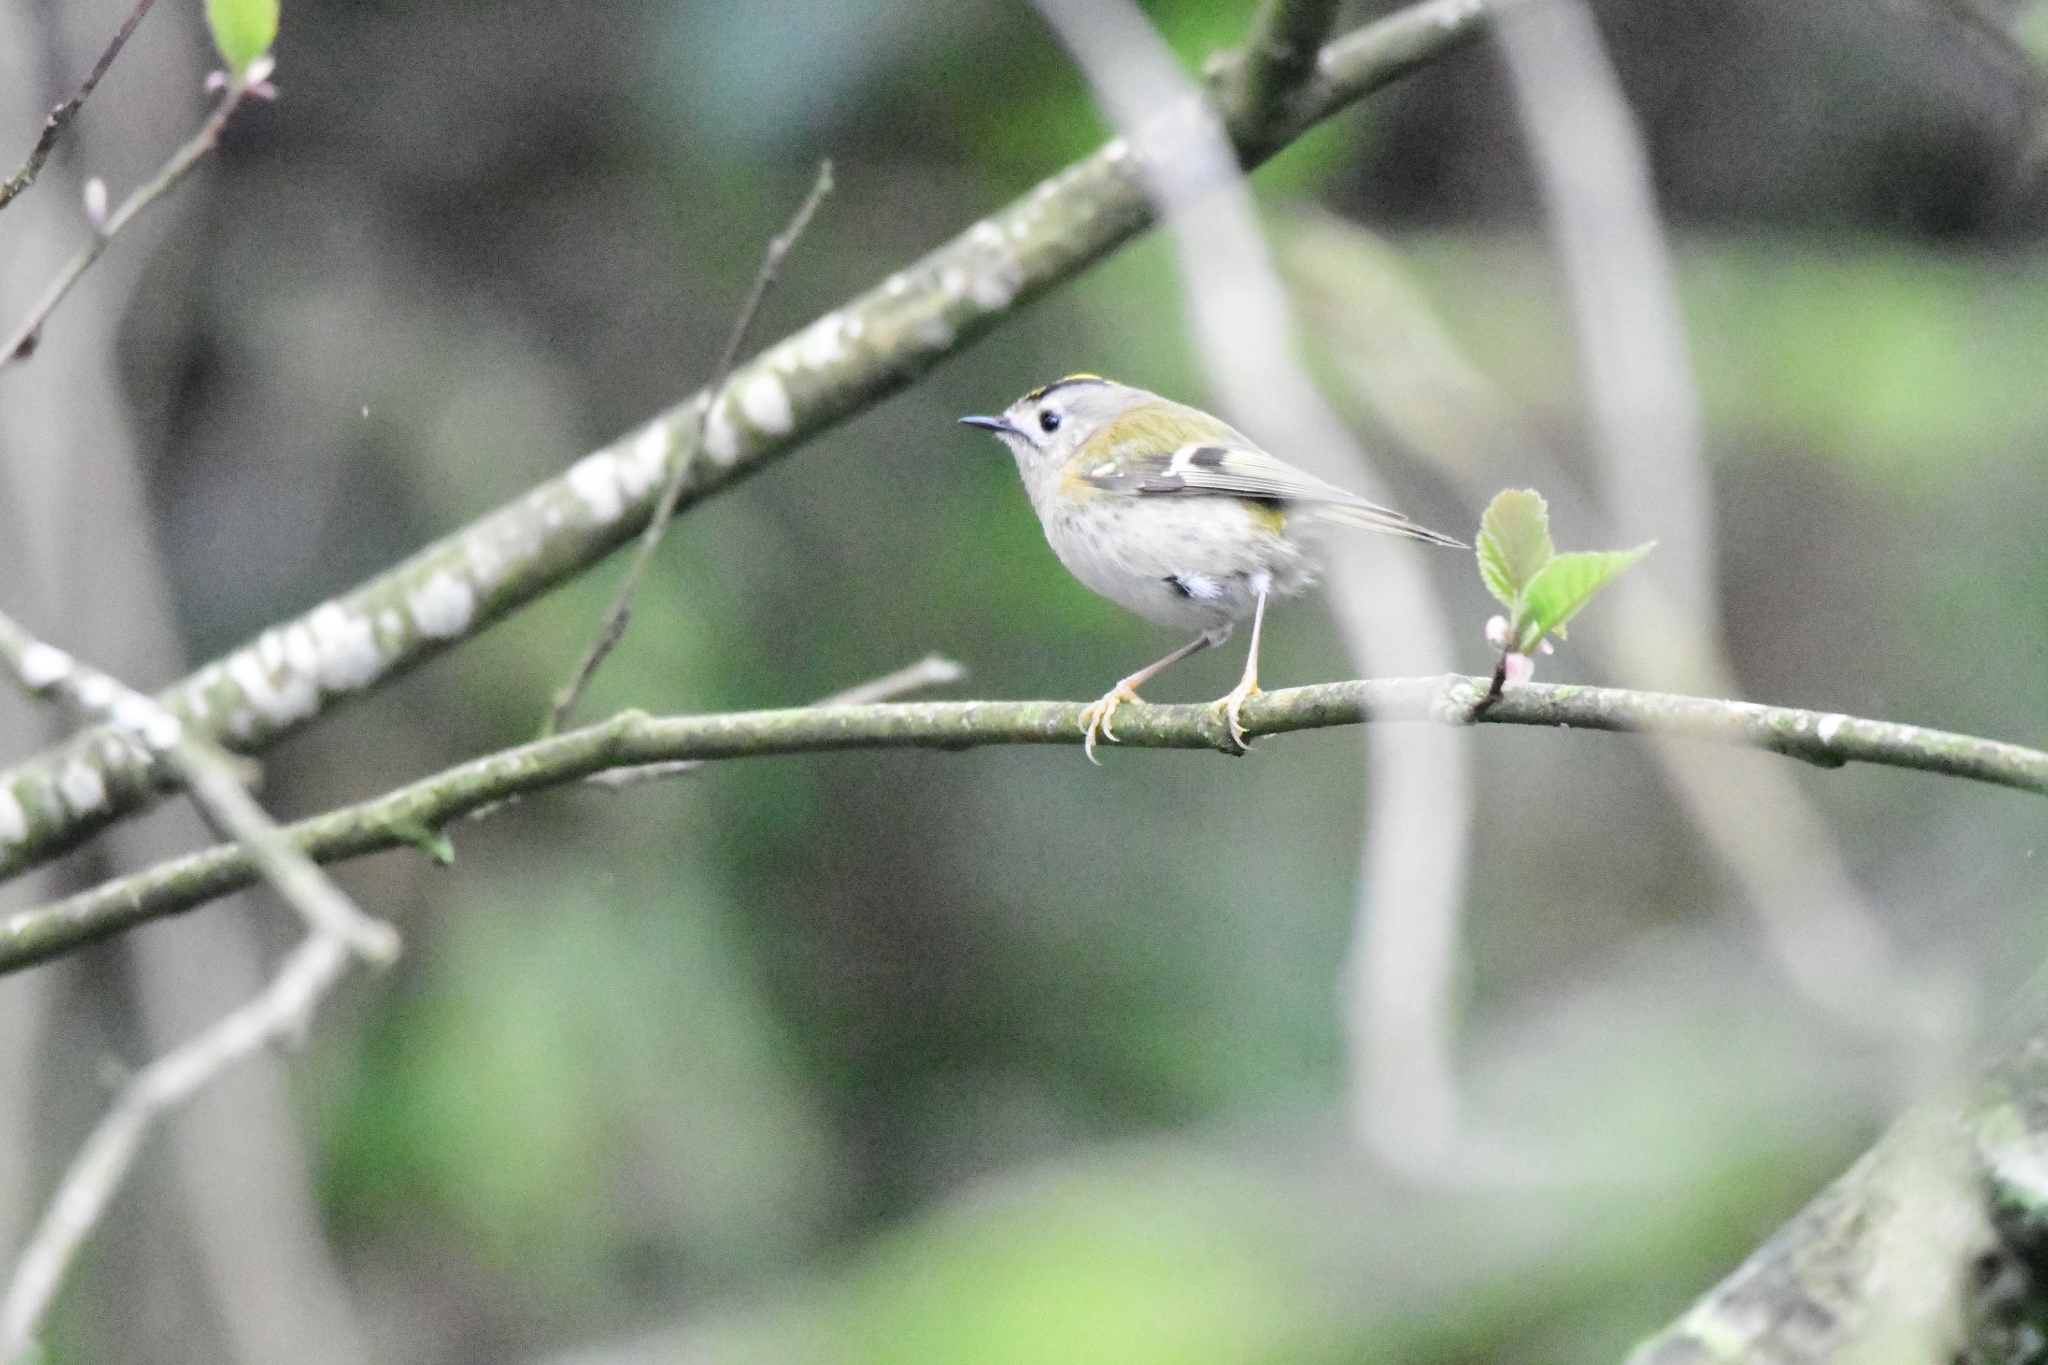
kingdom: Animalia
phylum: Chordata
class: Aves
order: Passeriformes
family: Regulidae
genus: Regulus
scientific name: Regulus regulus
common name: Goldcrest
